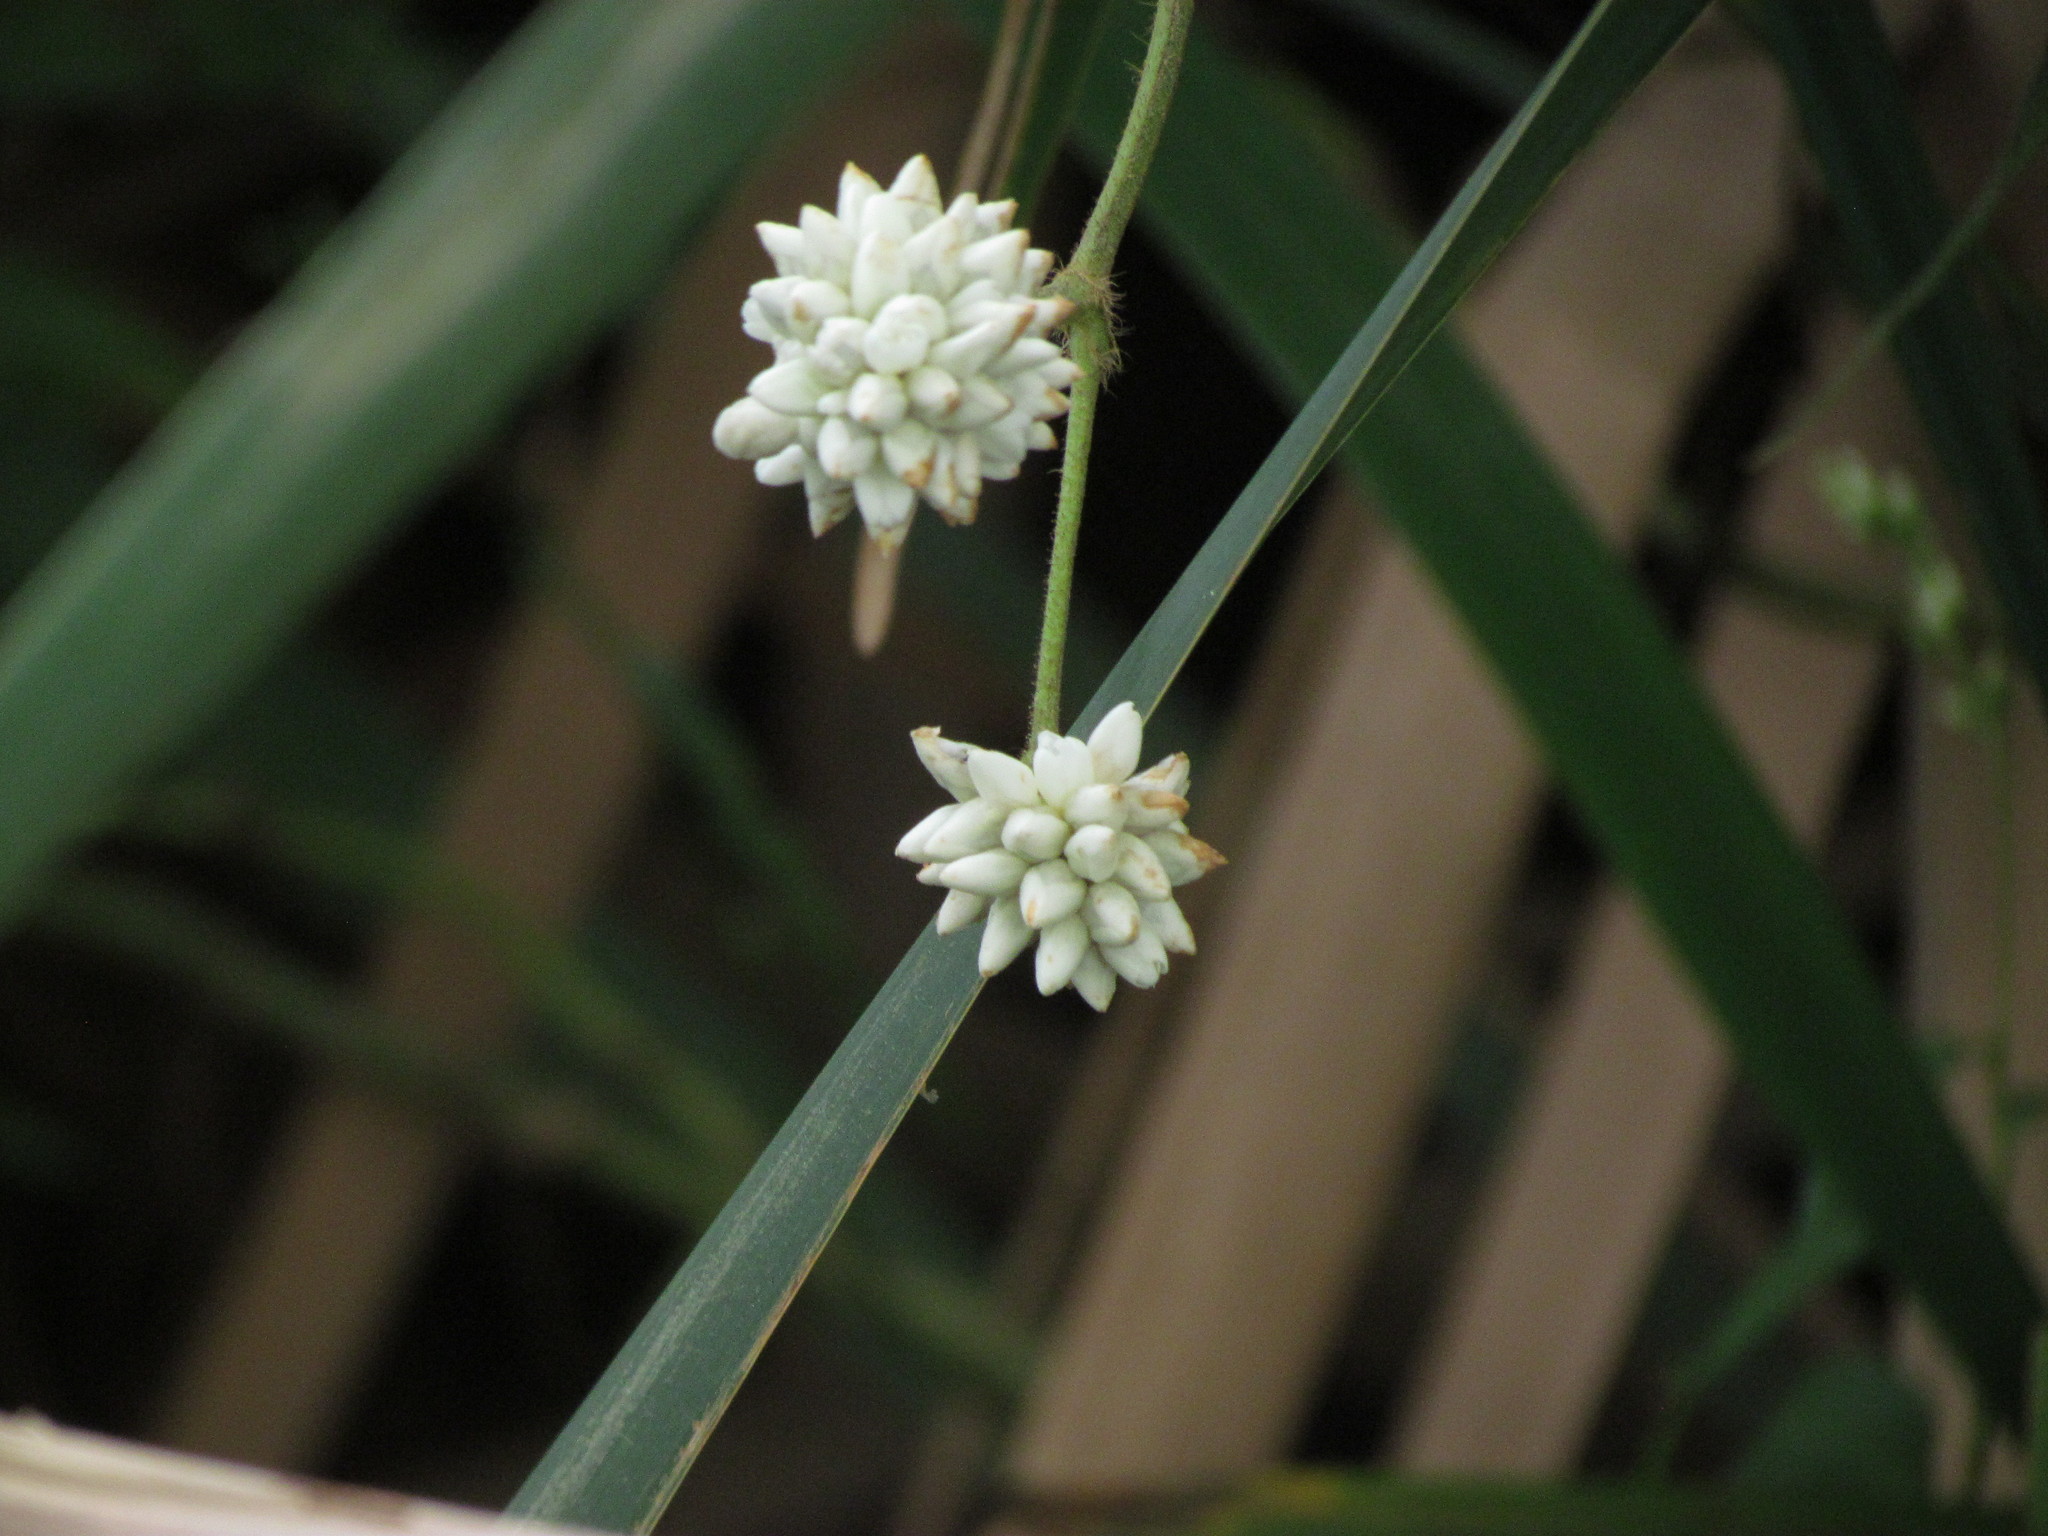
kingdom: Plantae
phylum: Tracheophyta
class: Magnoliopsida
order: Caryophyllales
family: Polygonaceae
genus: Persicaria
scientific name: Persicaria stelligera
